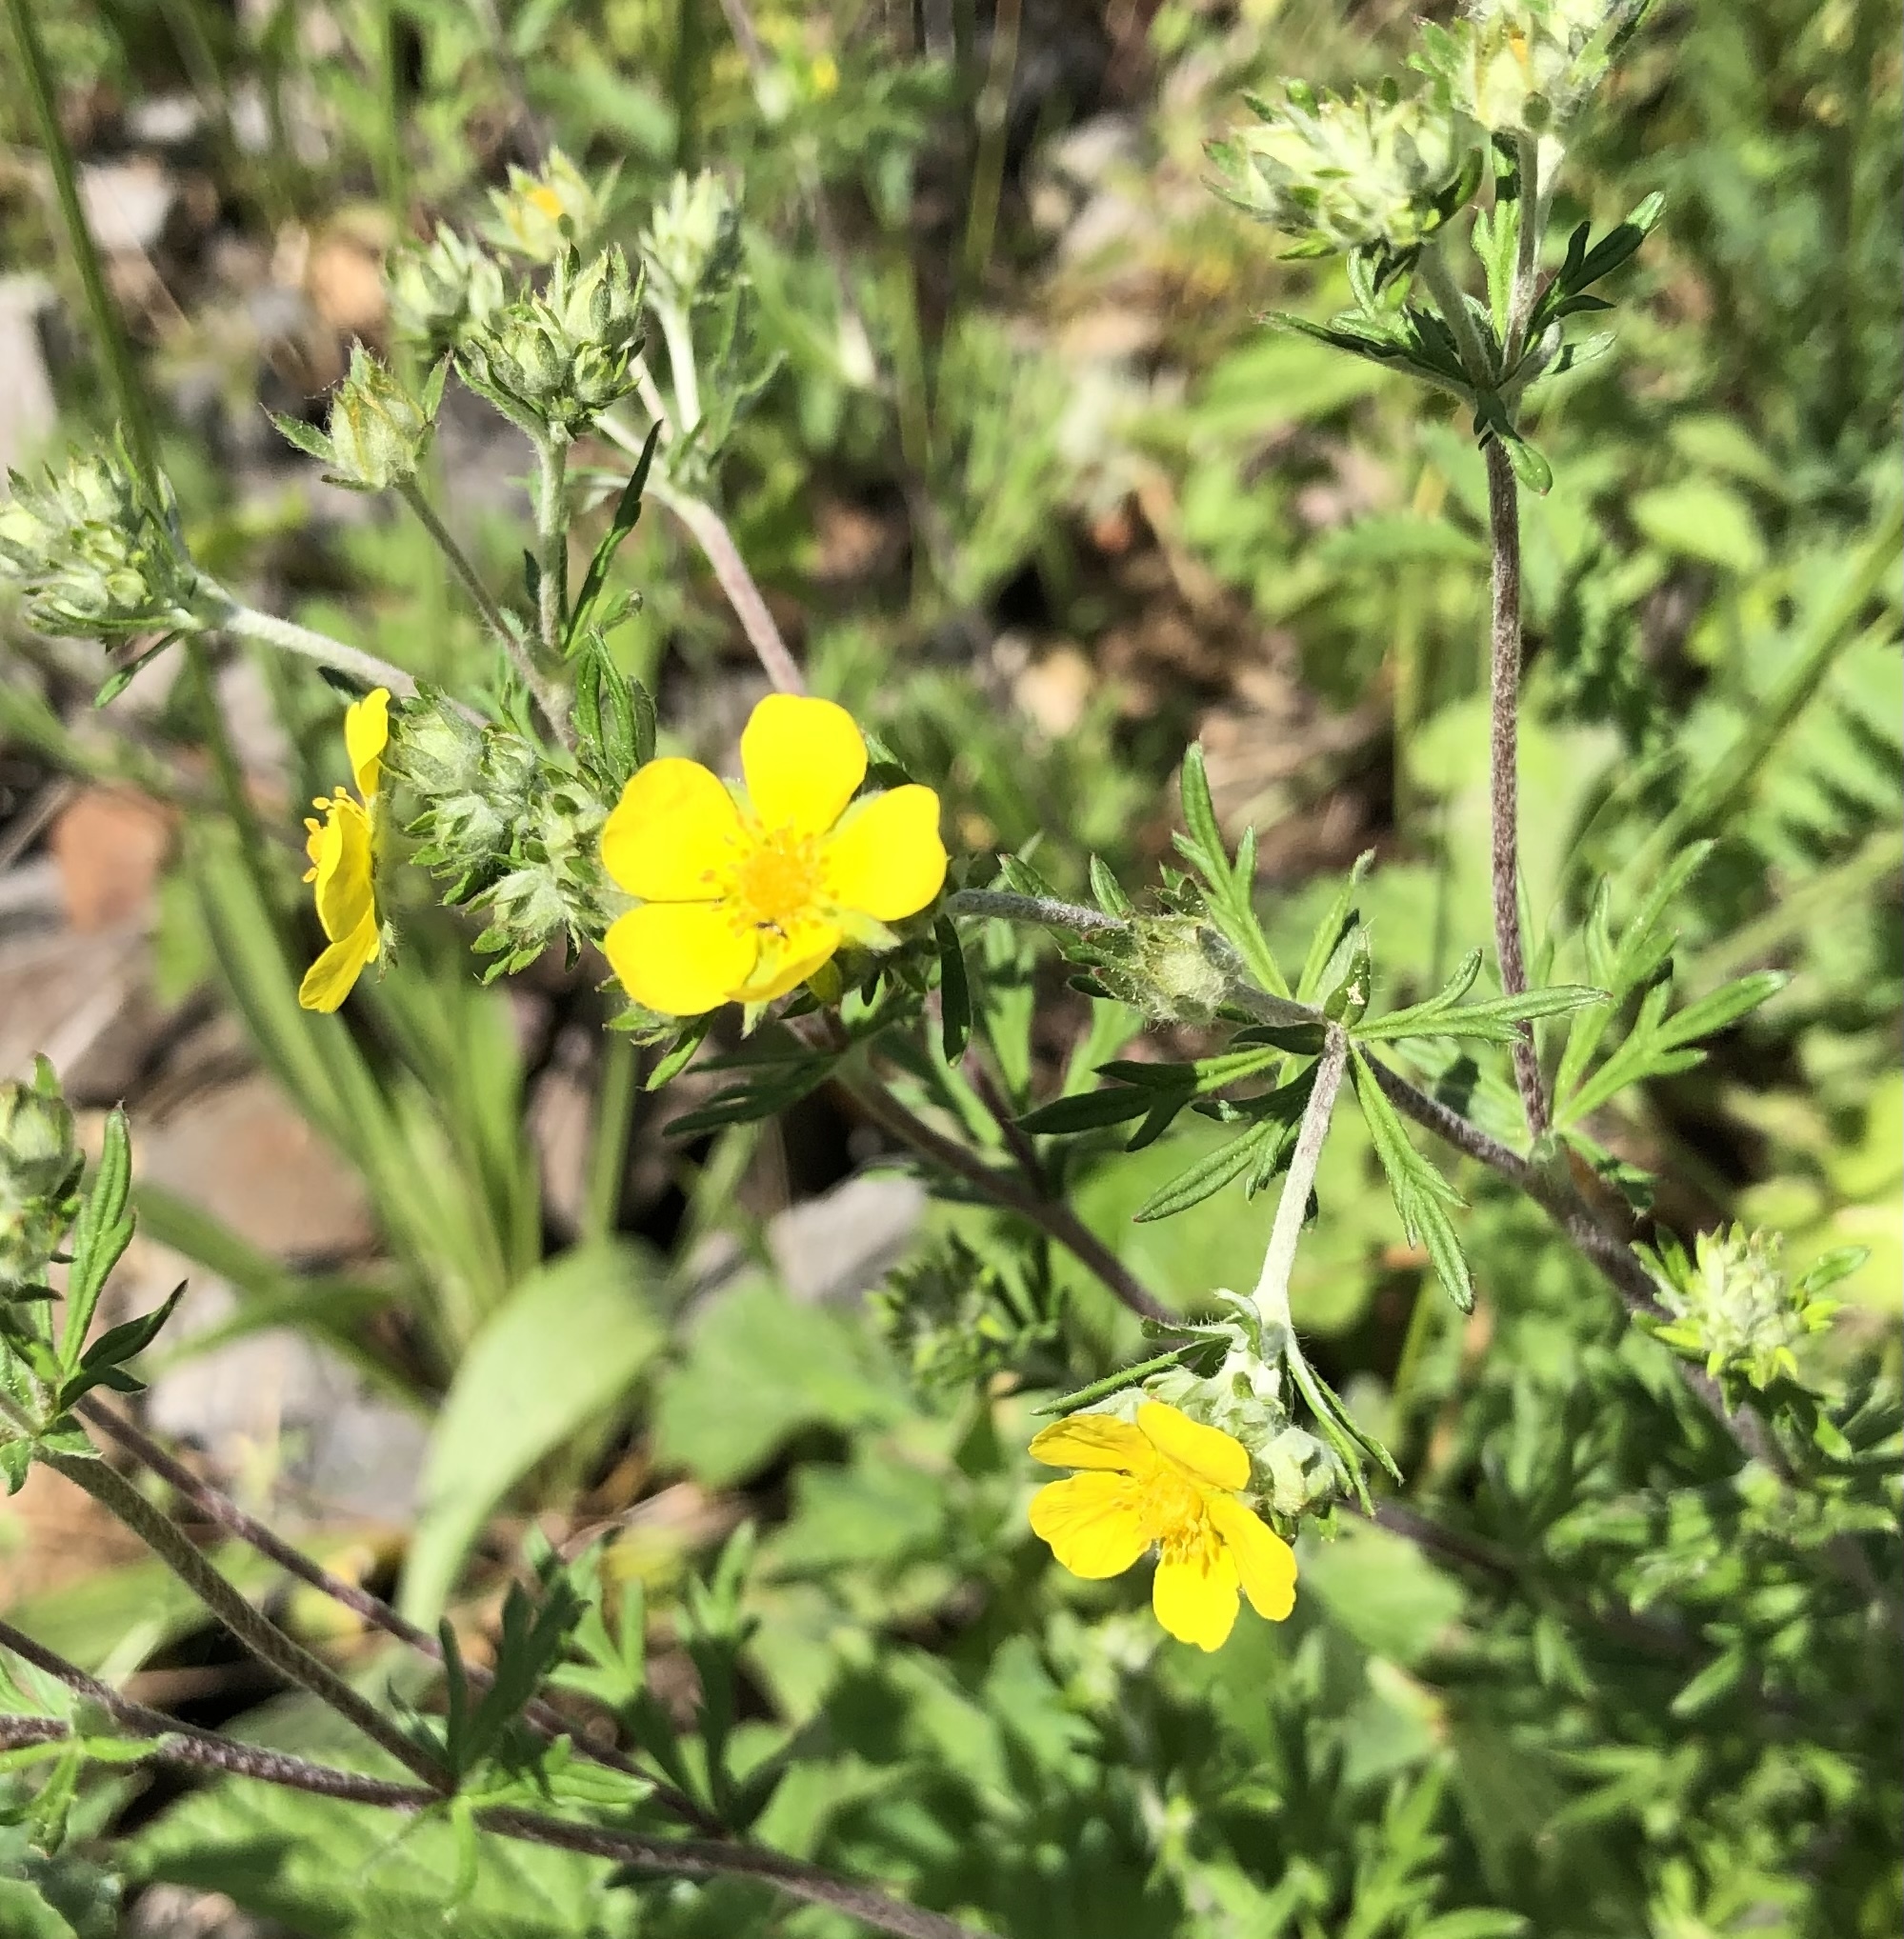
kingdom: Plantae
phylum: Tracheophyta
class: Magnoliopsida
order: Rosales
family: Rosaceae
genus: Potentilla
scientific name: Potentilla argentea
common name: Hoary cinquefoil
